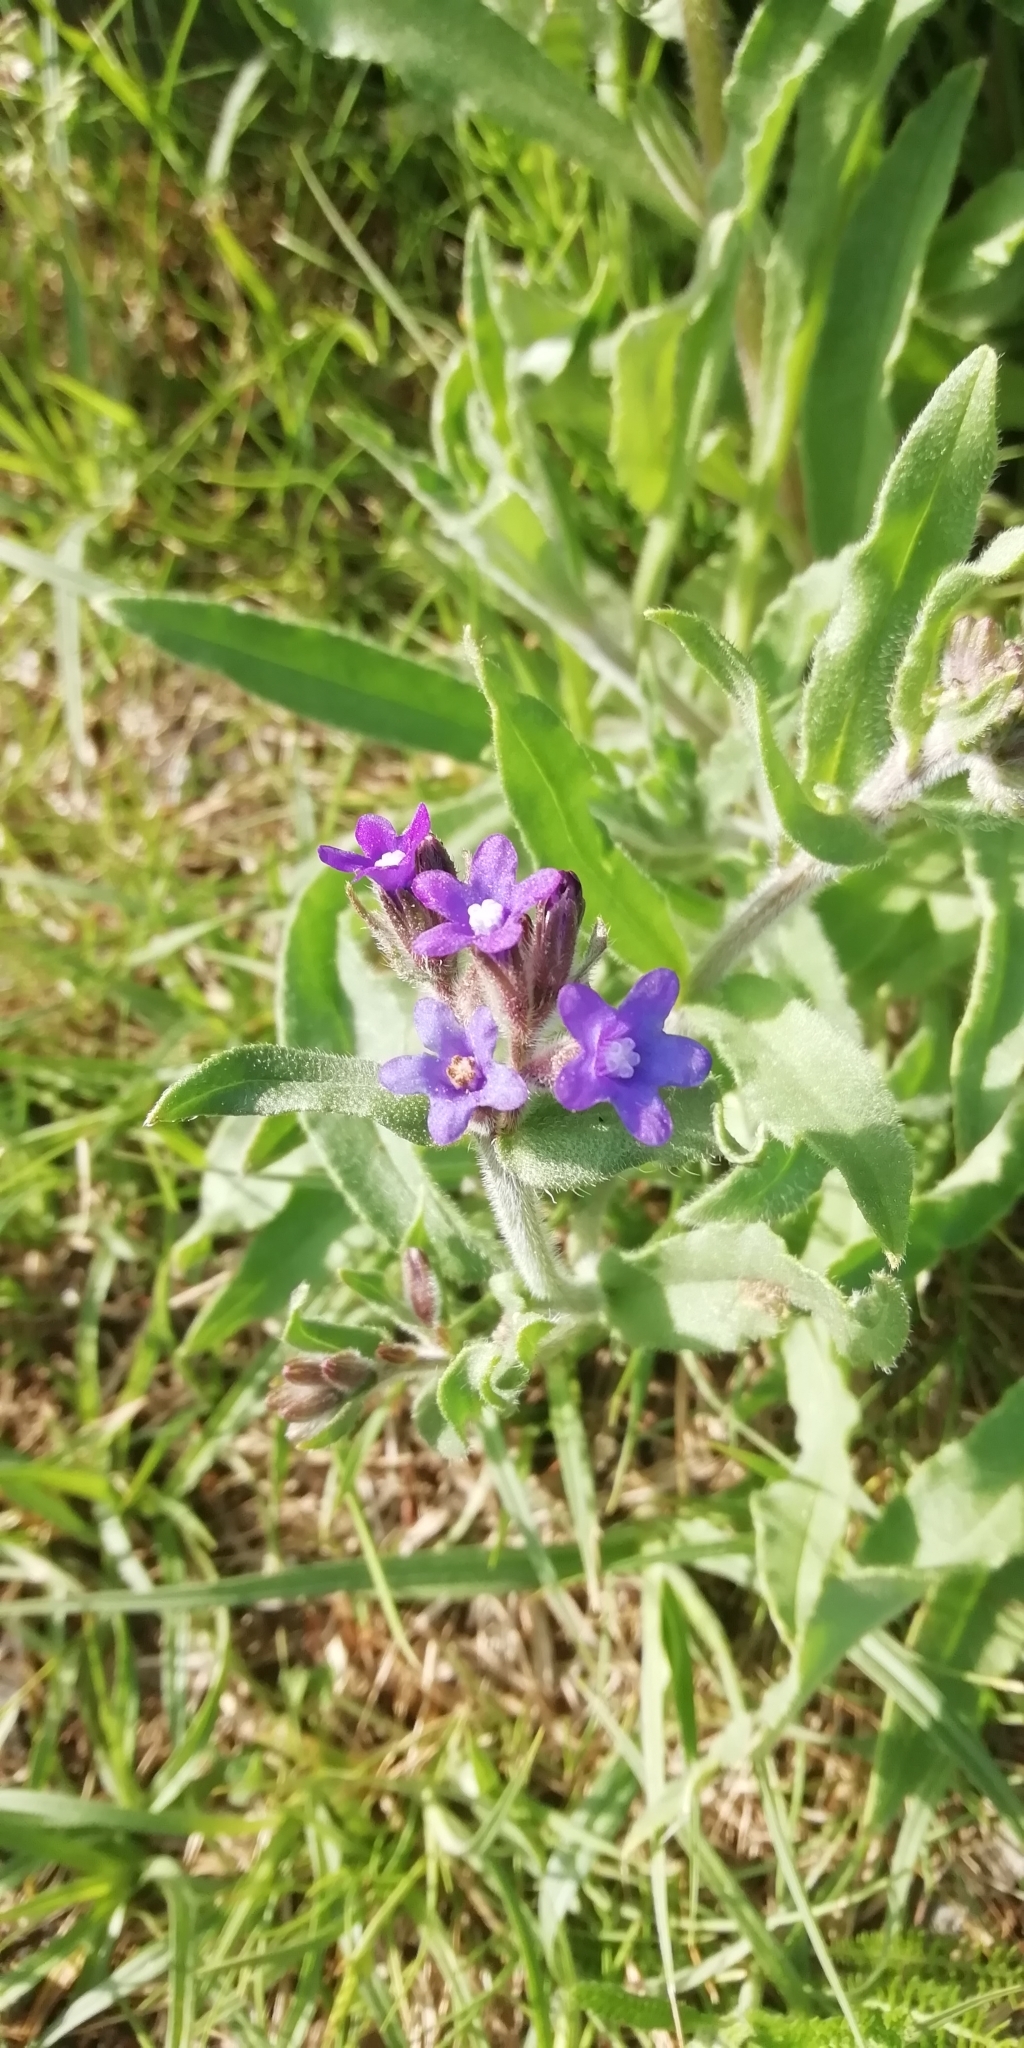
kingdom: Plantae
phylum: Tracheophyta
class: Magnoliopsida
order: Boraginales
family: Boraginaceae
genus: Anchusa
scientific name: Anchusa officinalis
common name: Alkanet
